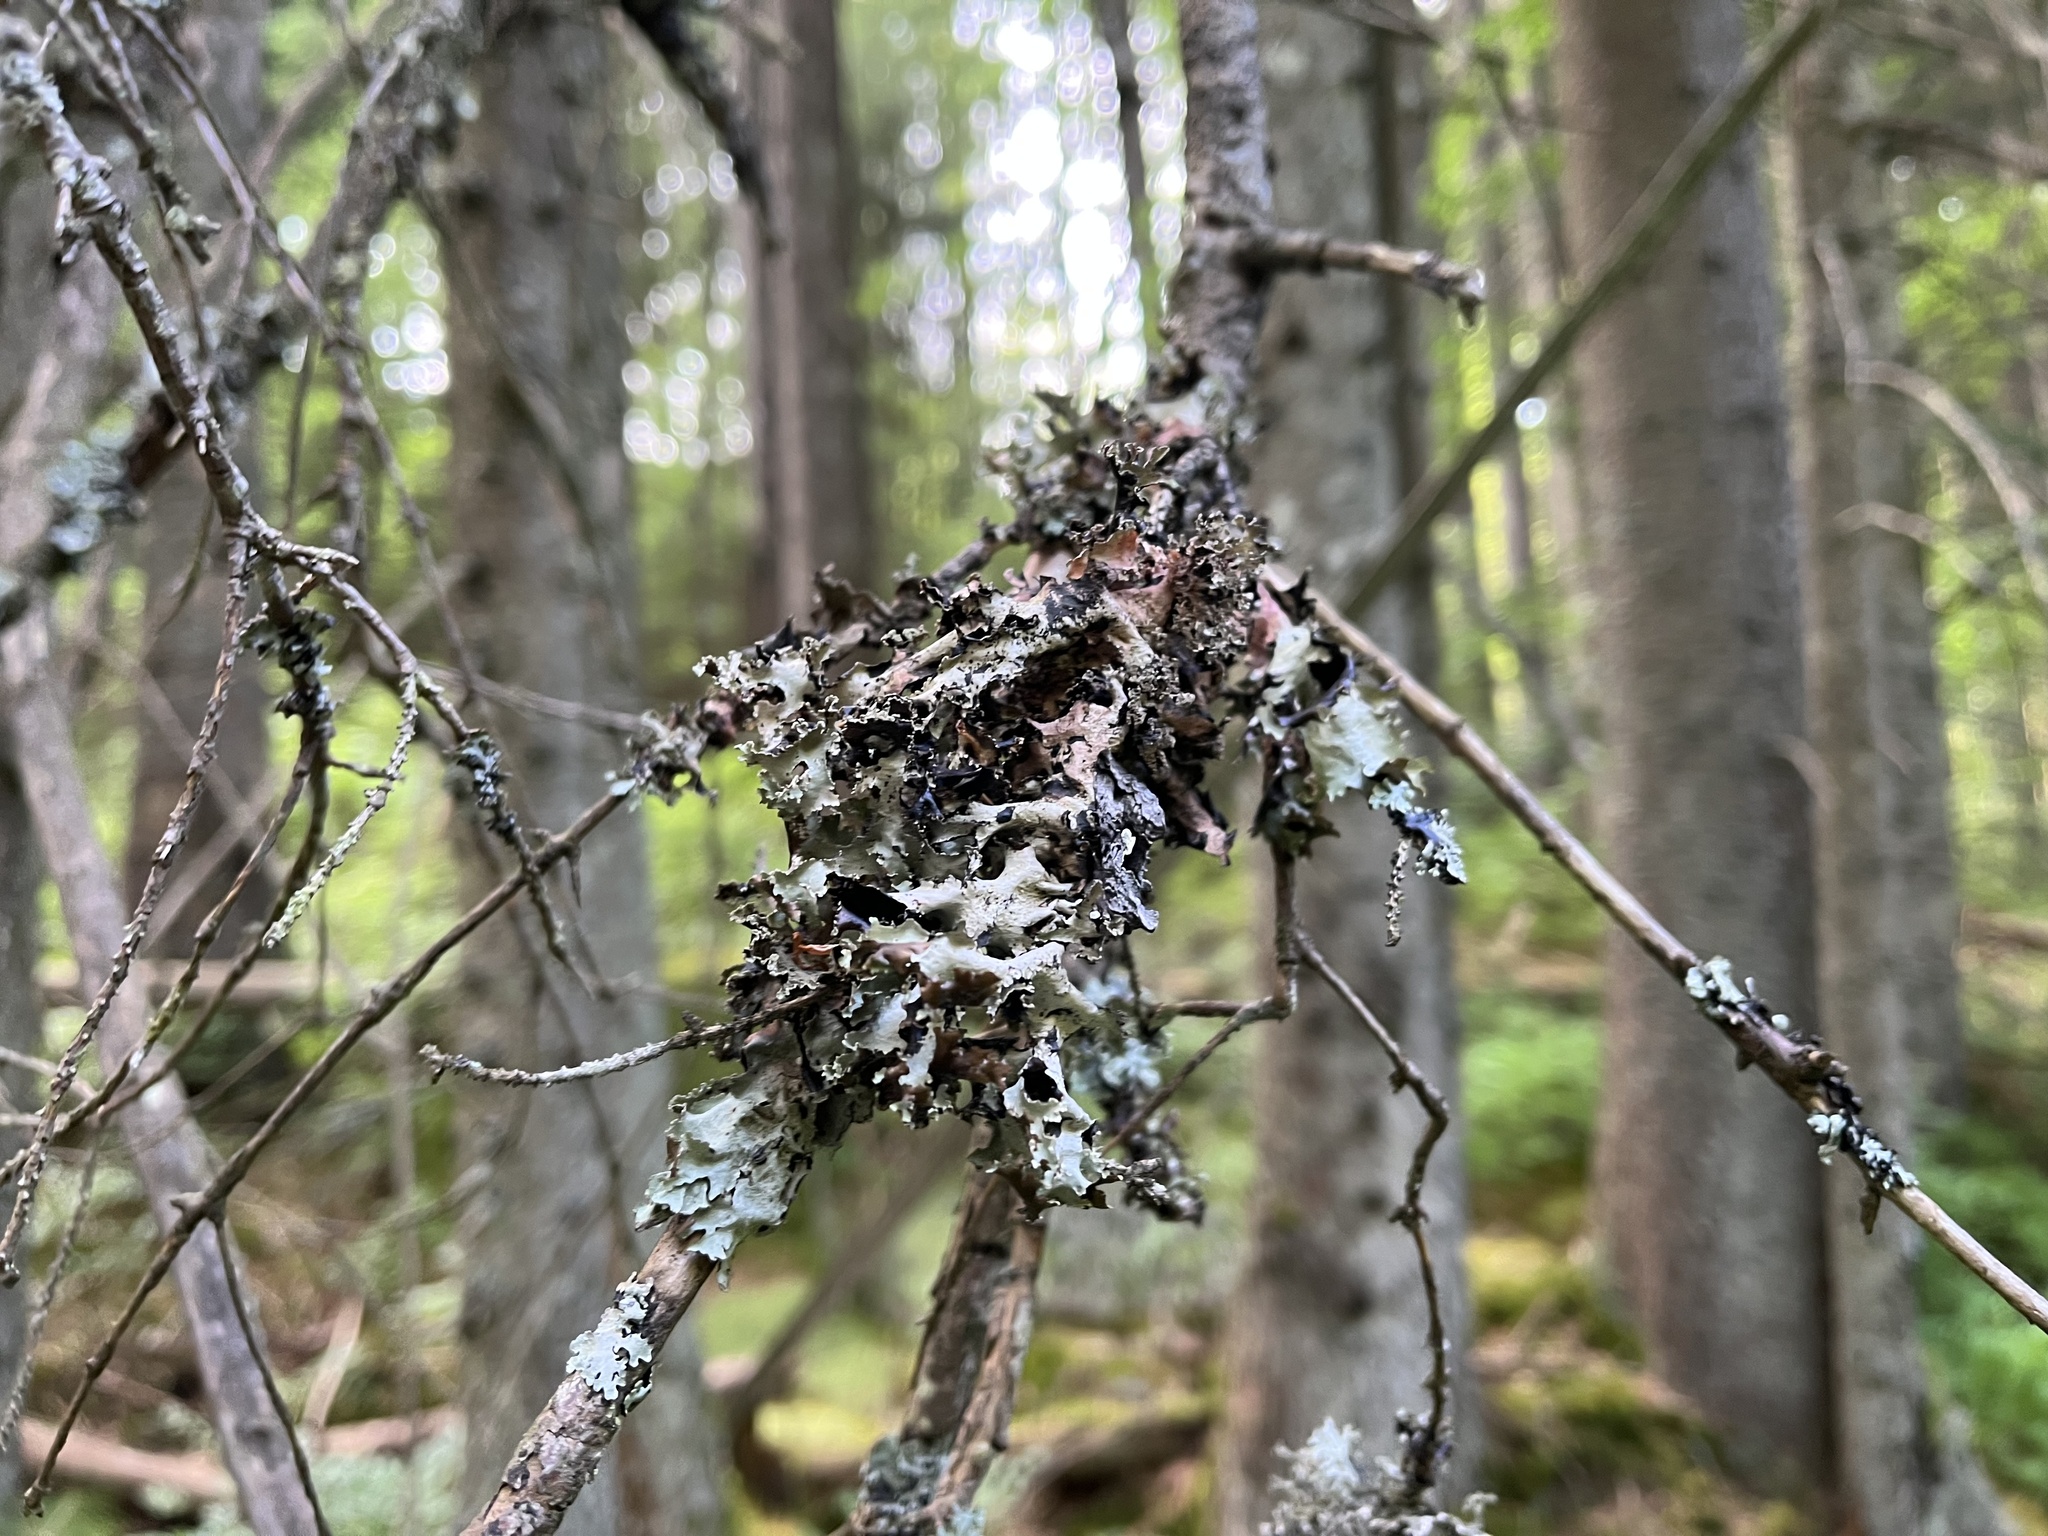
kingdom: Fungi
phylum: Ascomycota
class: Lecanoromycetes
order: Lecanorales
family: Parmeliaceae
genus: Platismatia
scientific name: Platismatia glauca
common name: Varied rag lichen
